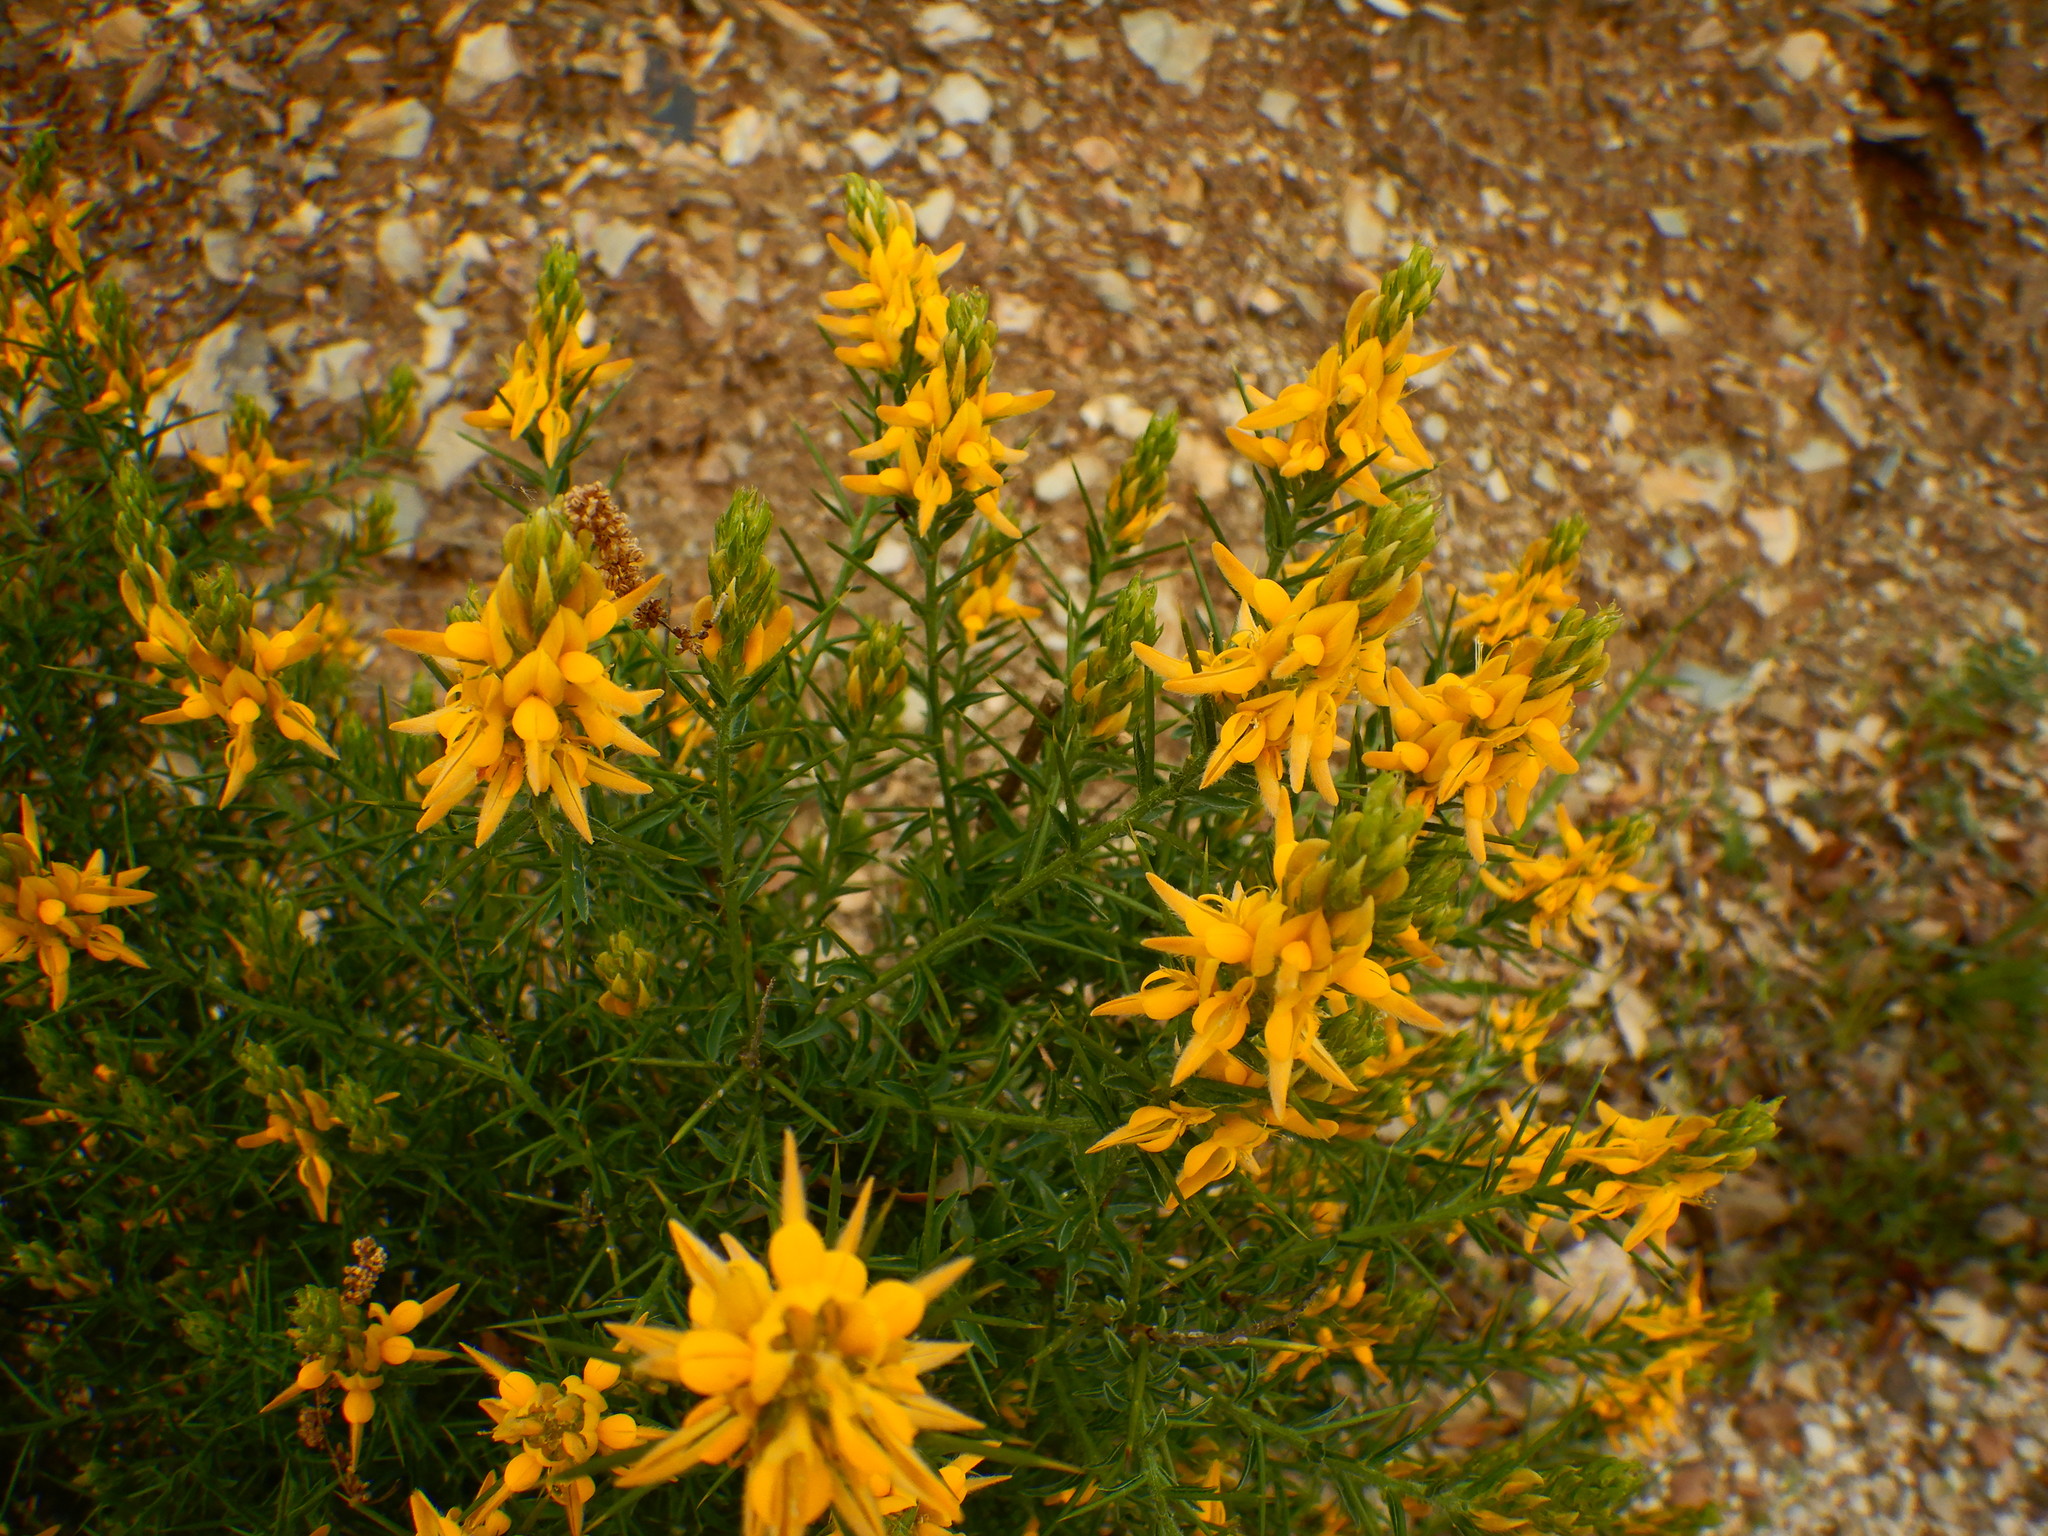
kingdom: Plantae
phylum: Tracheophyta
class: Magnoliopsida
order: Fabales
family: Fabaceae
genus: Genista
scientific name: Genista hirsuta
